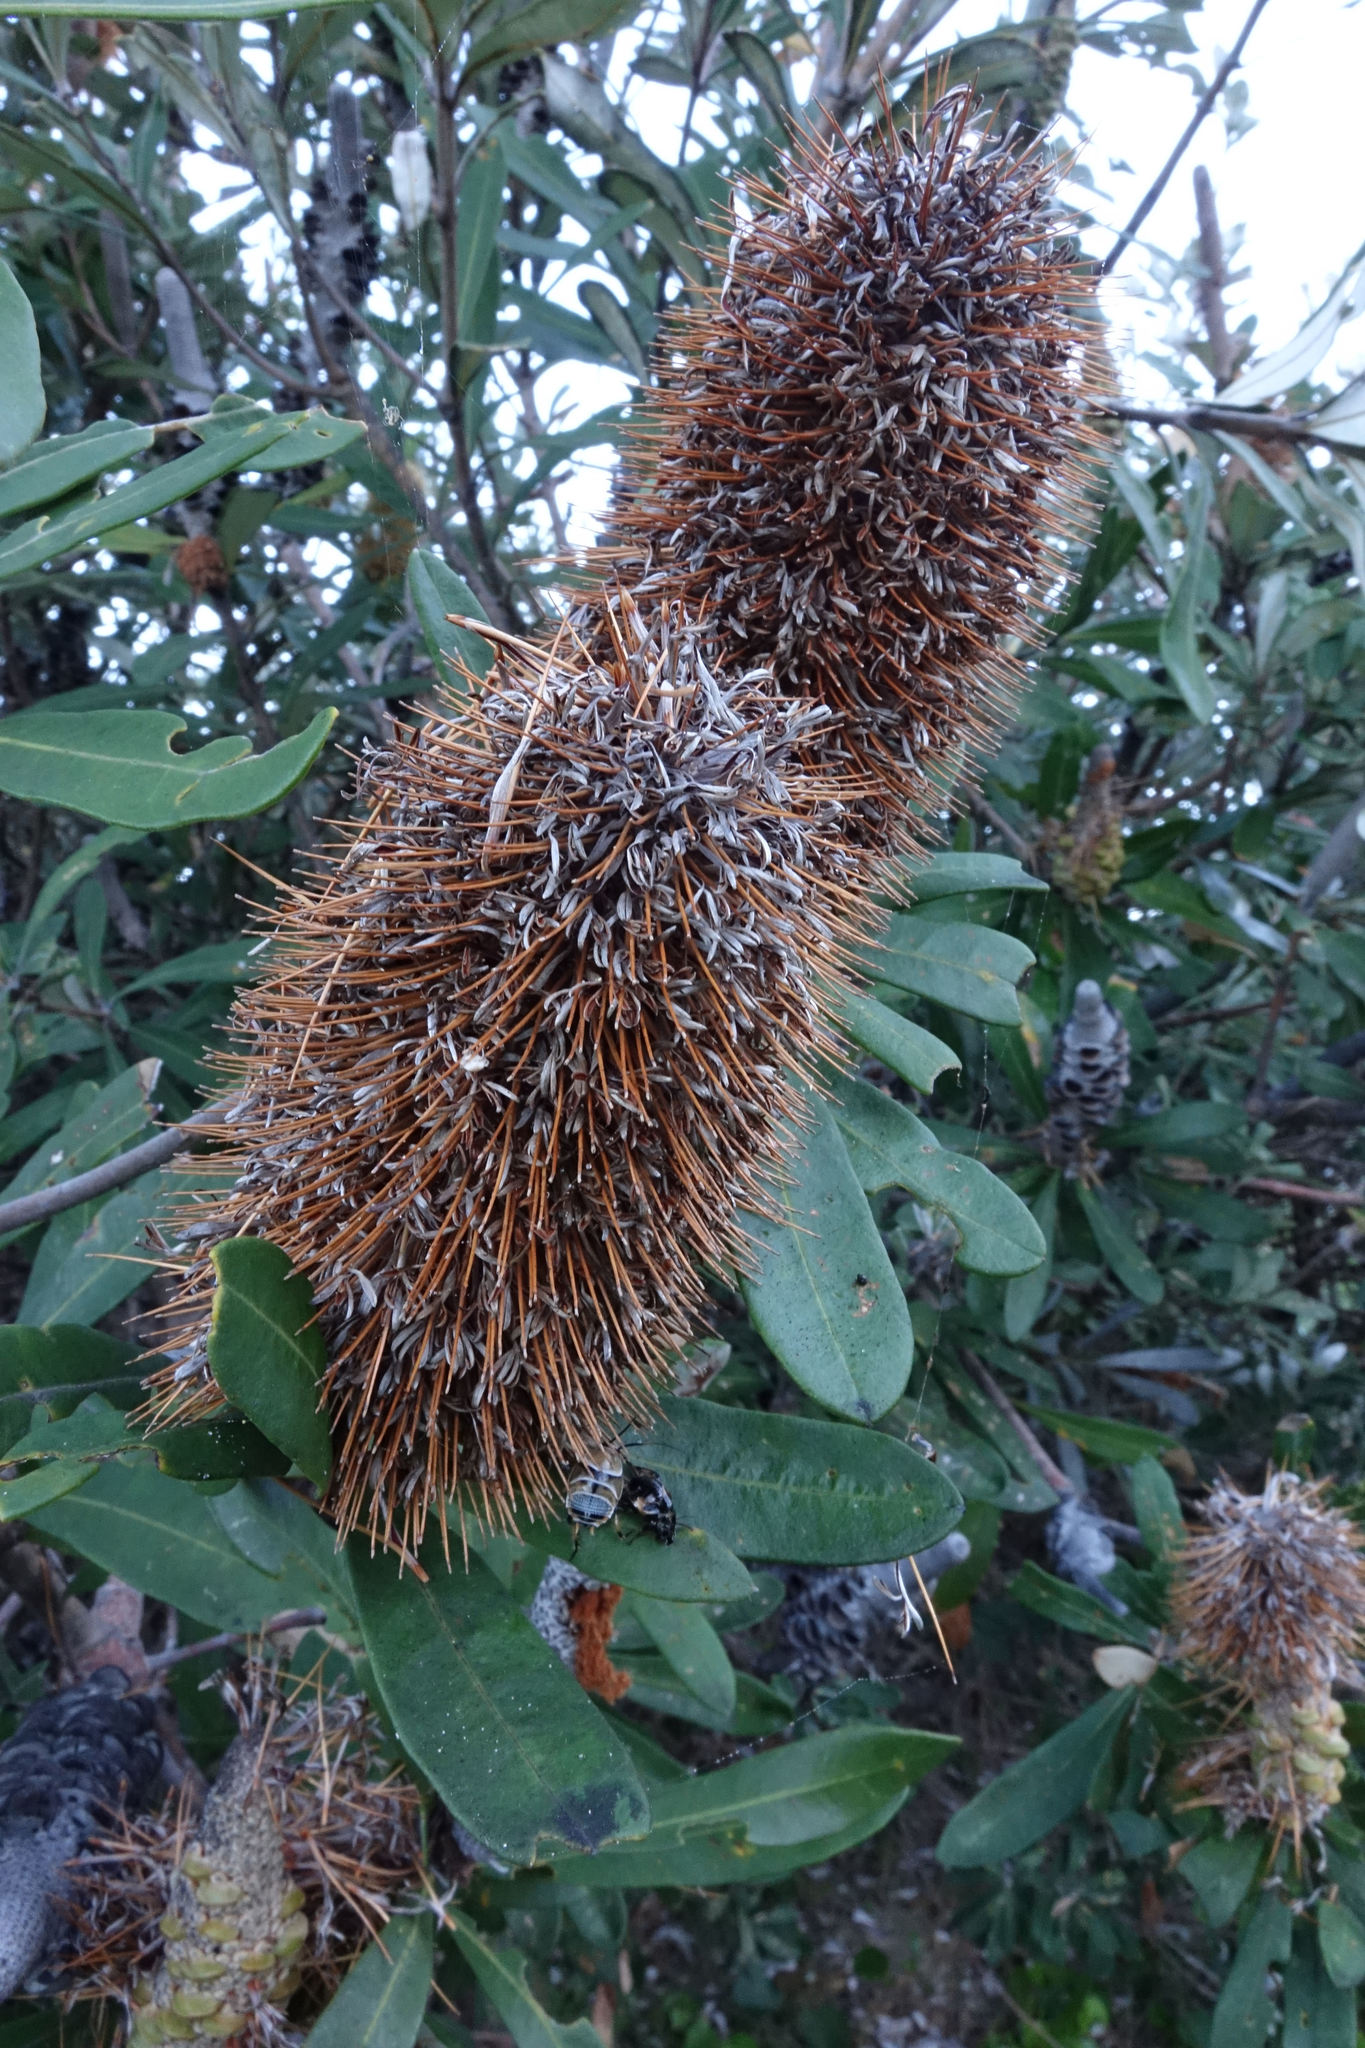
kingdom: Plantae
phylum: Tracheophyta
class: Magnoliopsida
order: Proteales
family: Proteaceae
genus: Banksia
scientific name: Banksia integrifolia
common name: White-honeysuckle
